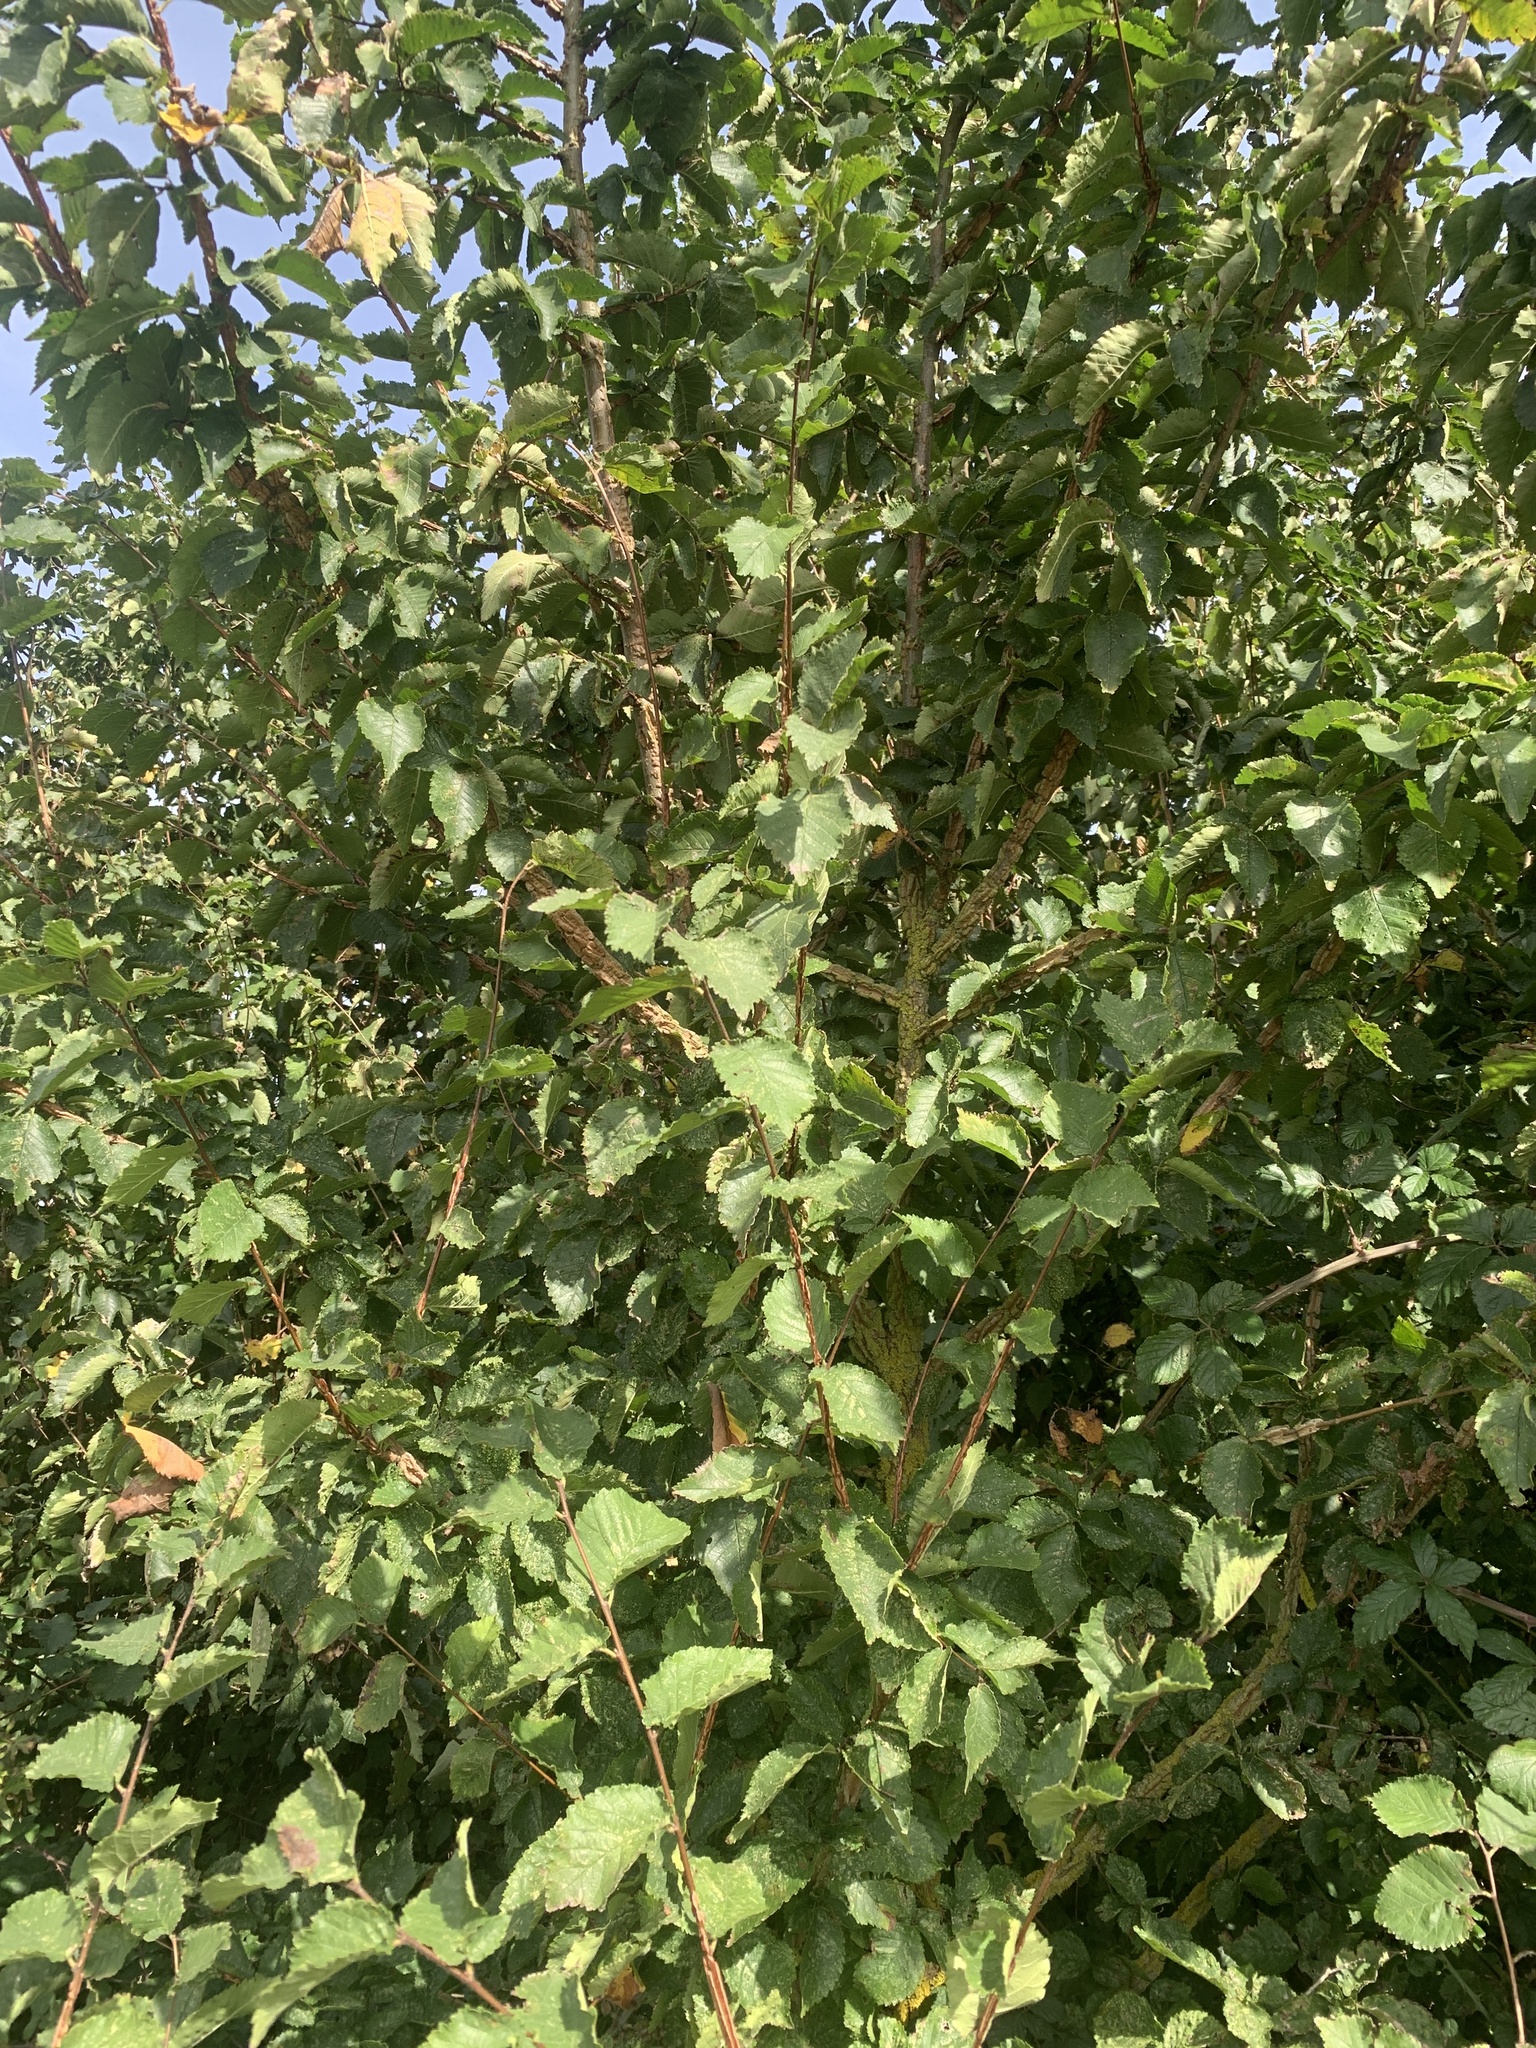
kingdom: Plantae
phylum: Tracheophyta
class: Magnoliopsida
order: Fagales
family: Betulaceae
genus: Carpinus
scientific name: Carpinus betulus
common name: Hornbeam
